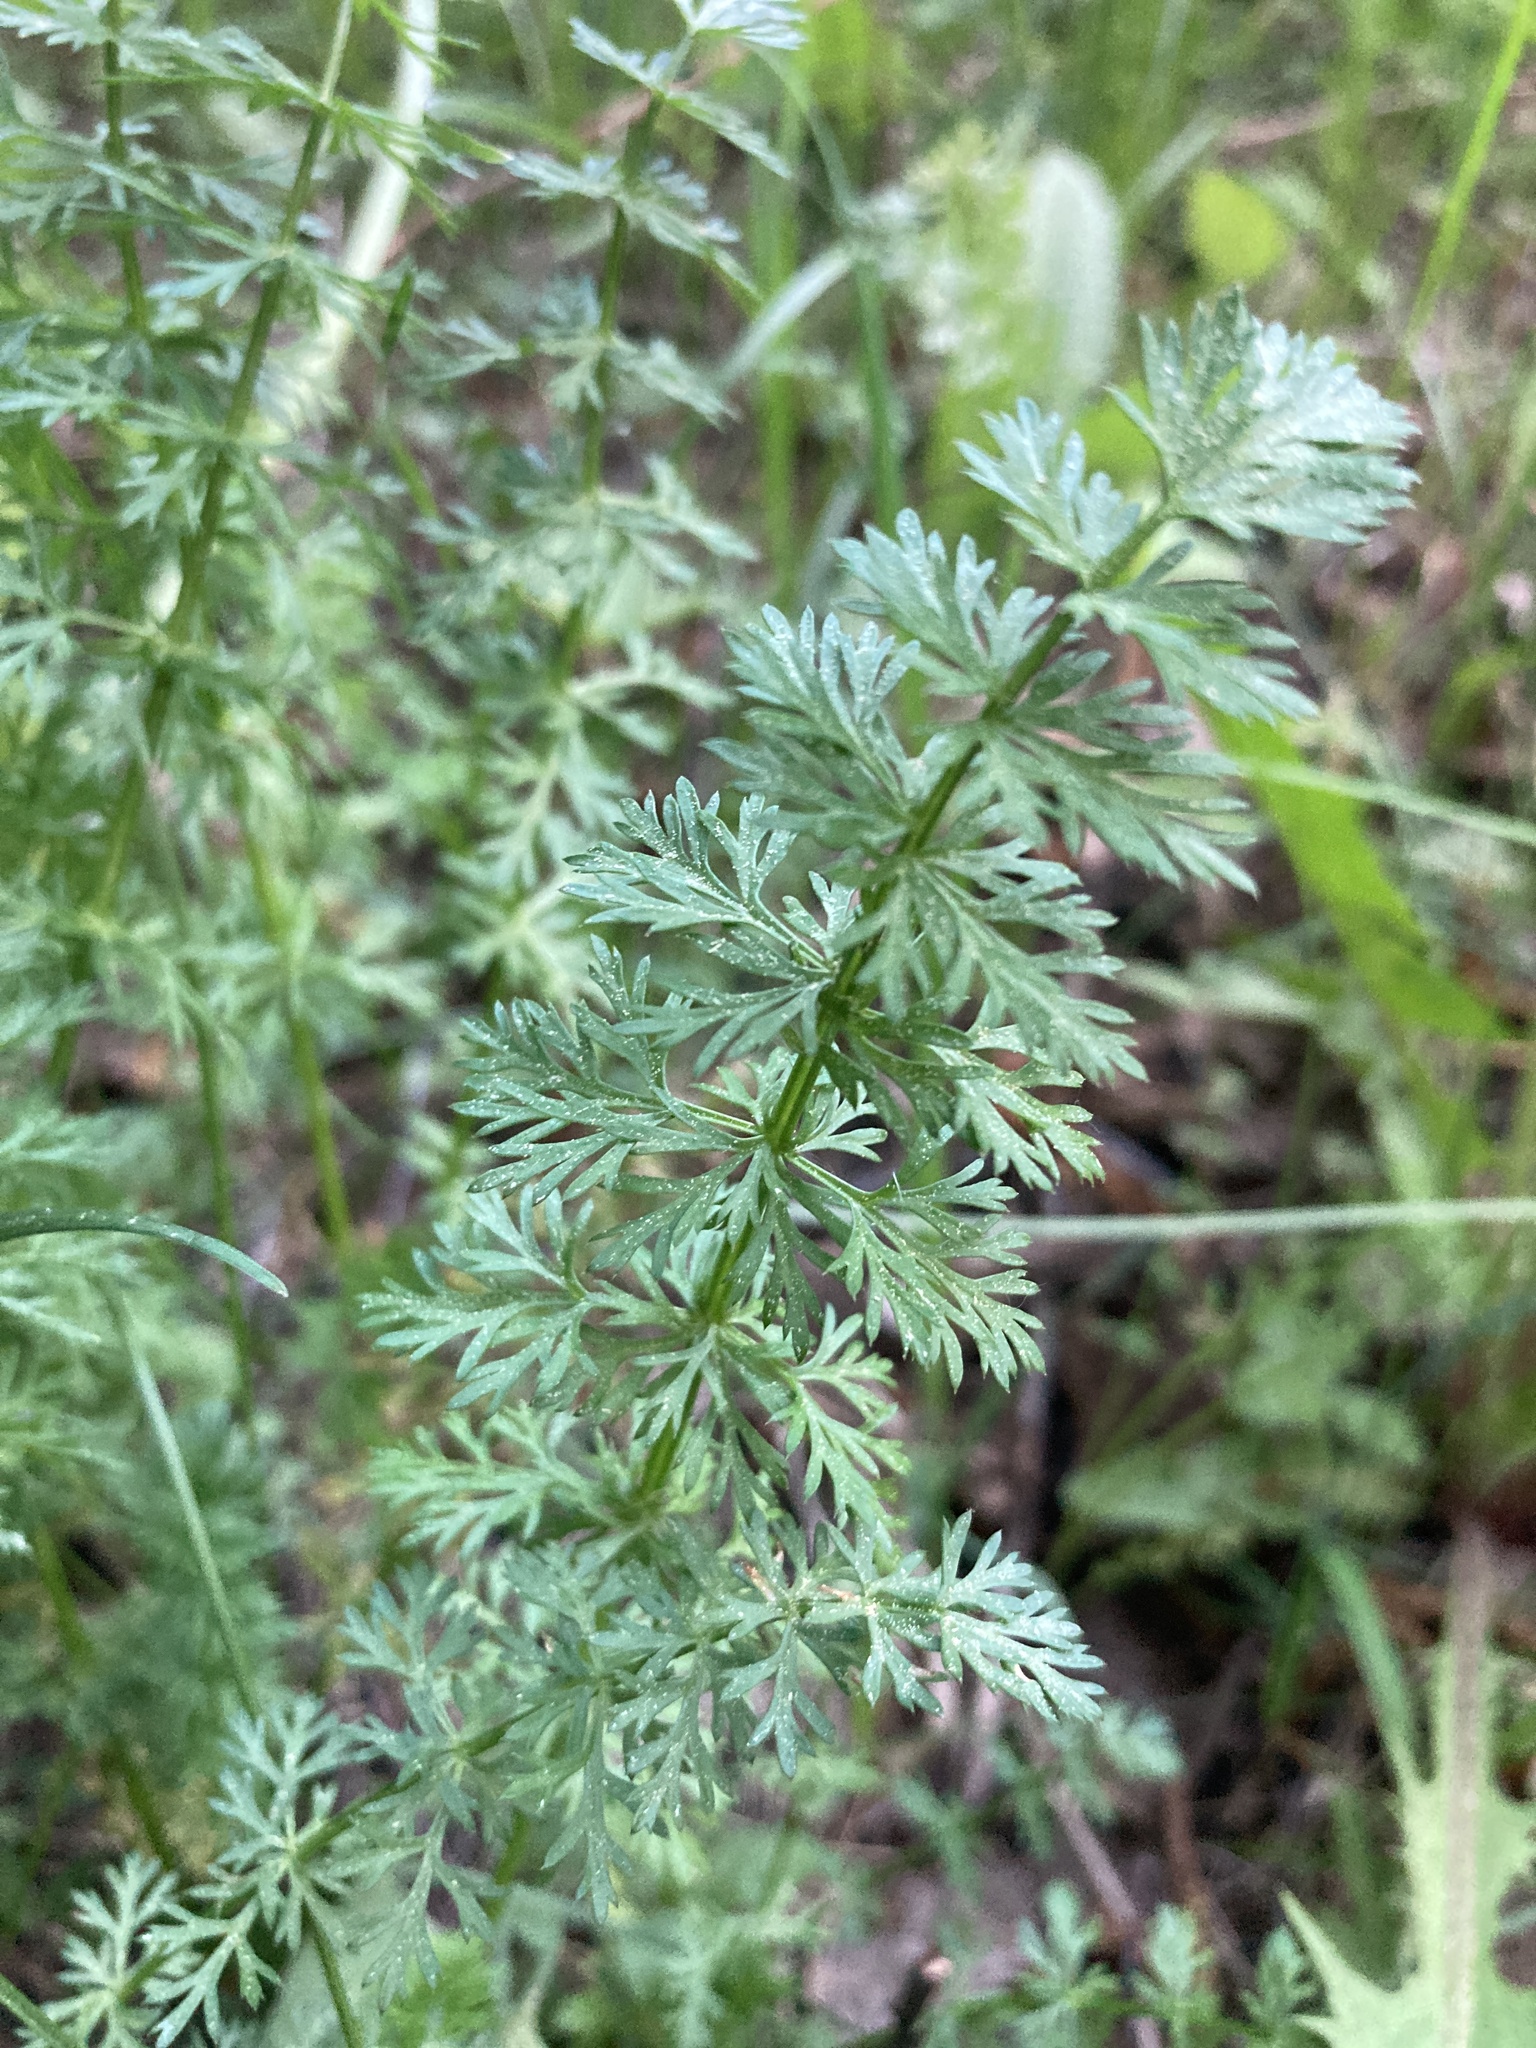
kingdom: Plantae
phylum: Tracheophyta
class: Magnoliopsida
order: Apiales
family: Apiaceae
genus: Carum
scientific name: Carum carvi
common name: Caraway
